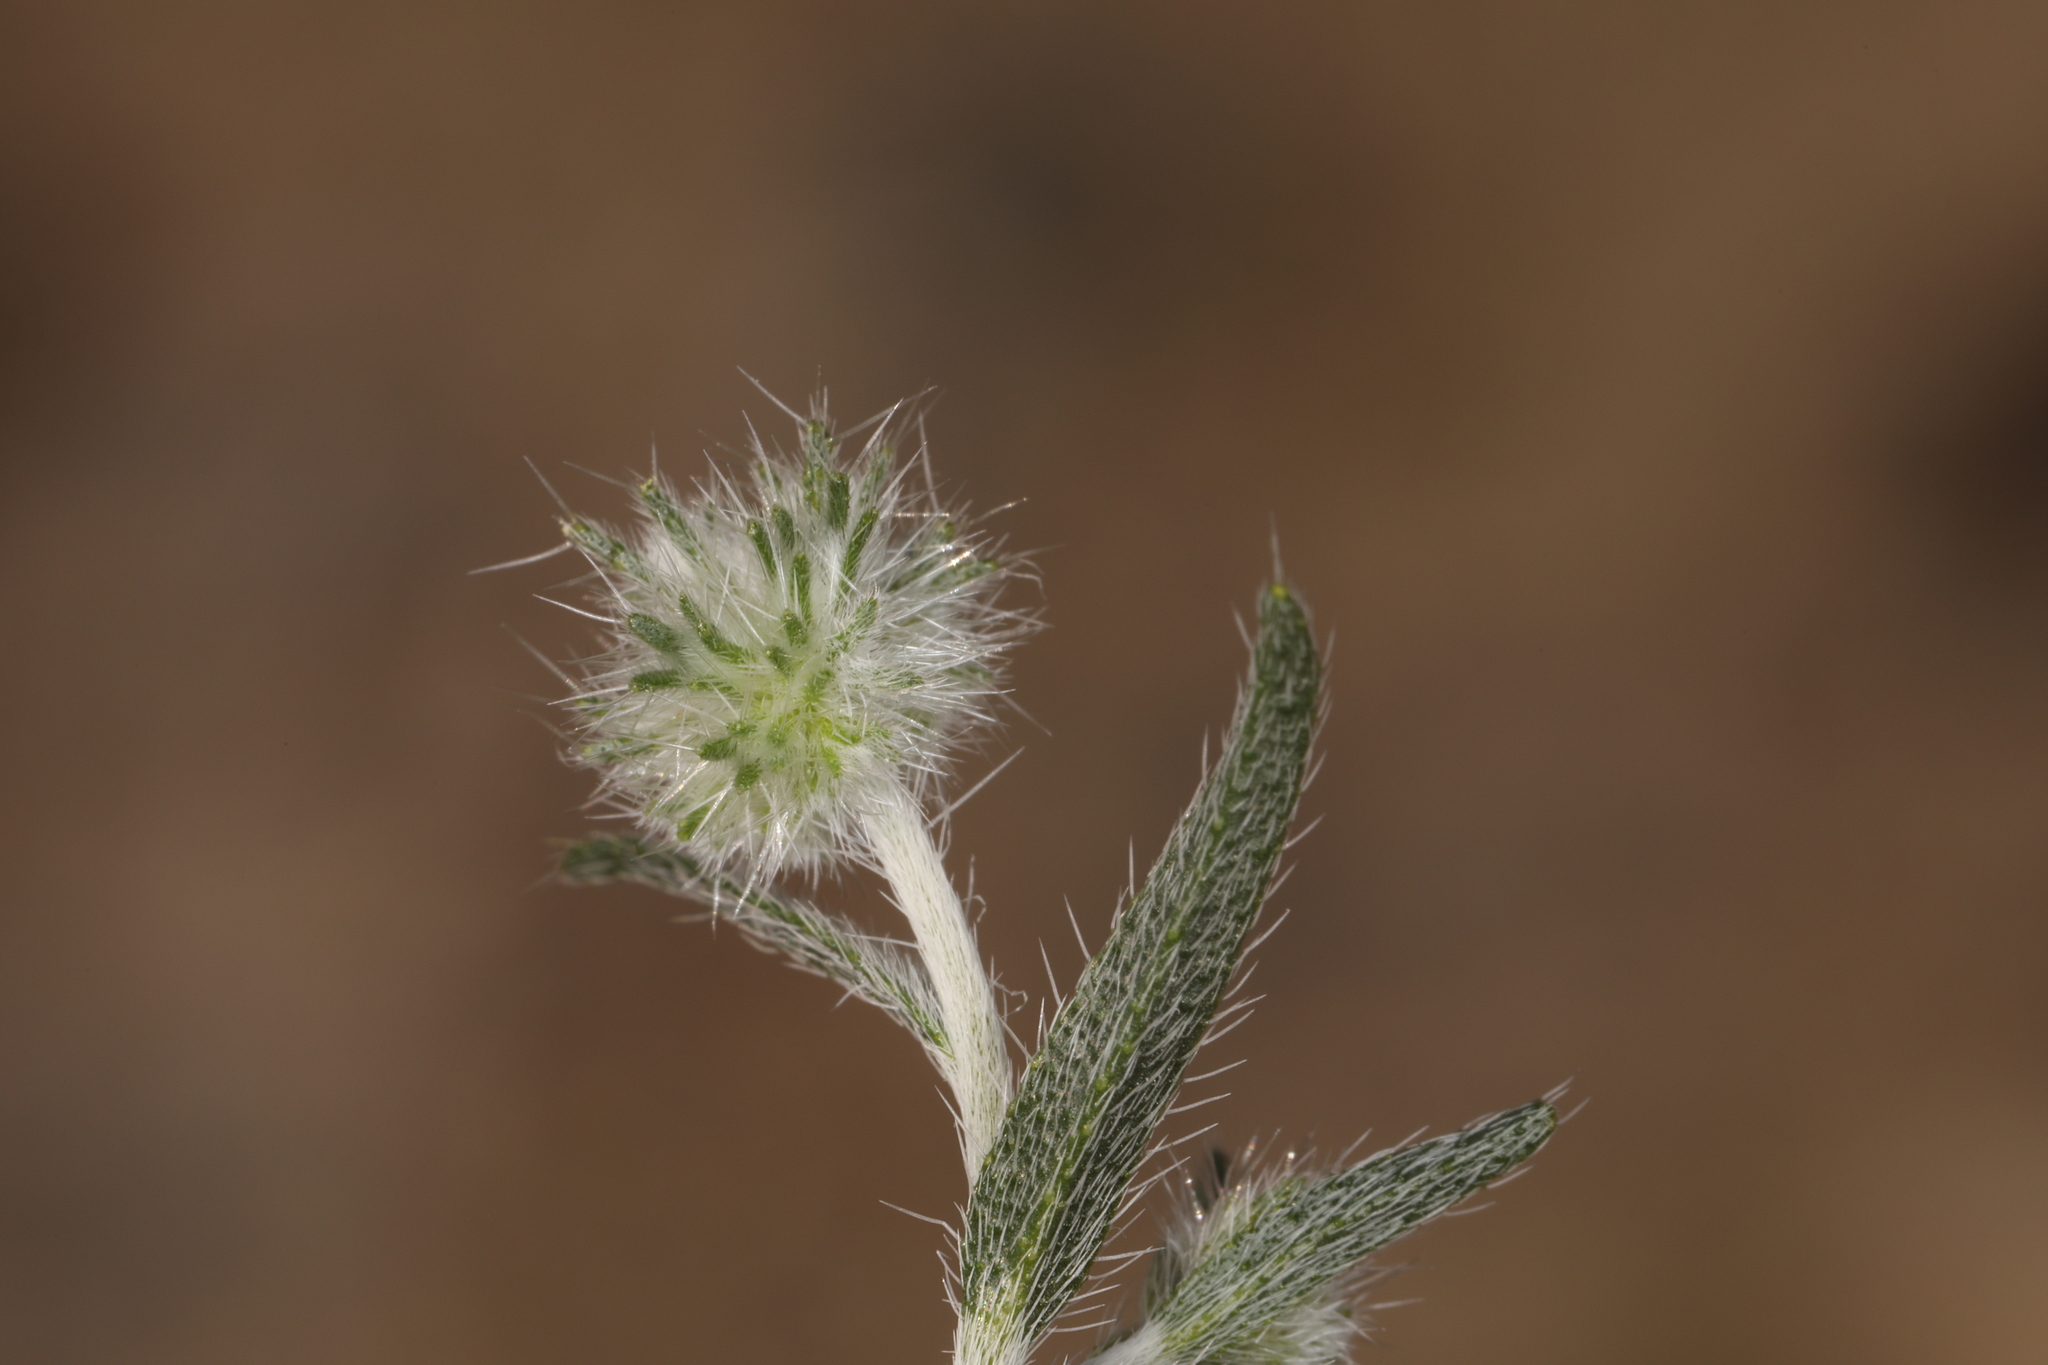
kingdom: Plantae
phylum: Tracheophyta
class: Magnoliopsida
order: Boraginales
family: Boraginaceae
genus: Cryptantha
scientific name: Cryptantha nevadensis
